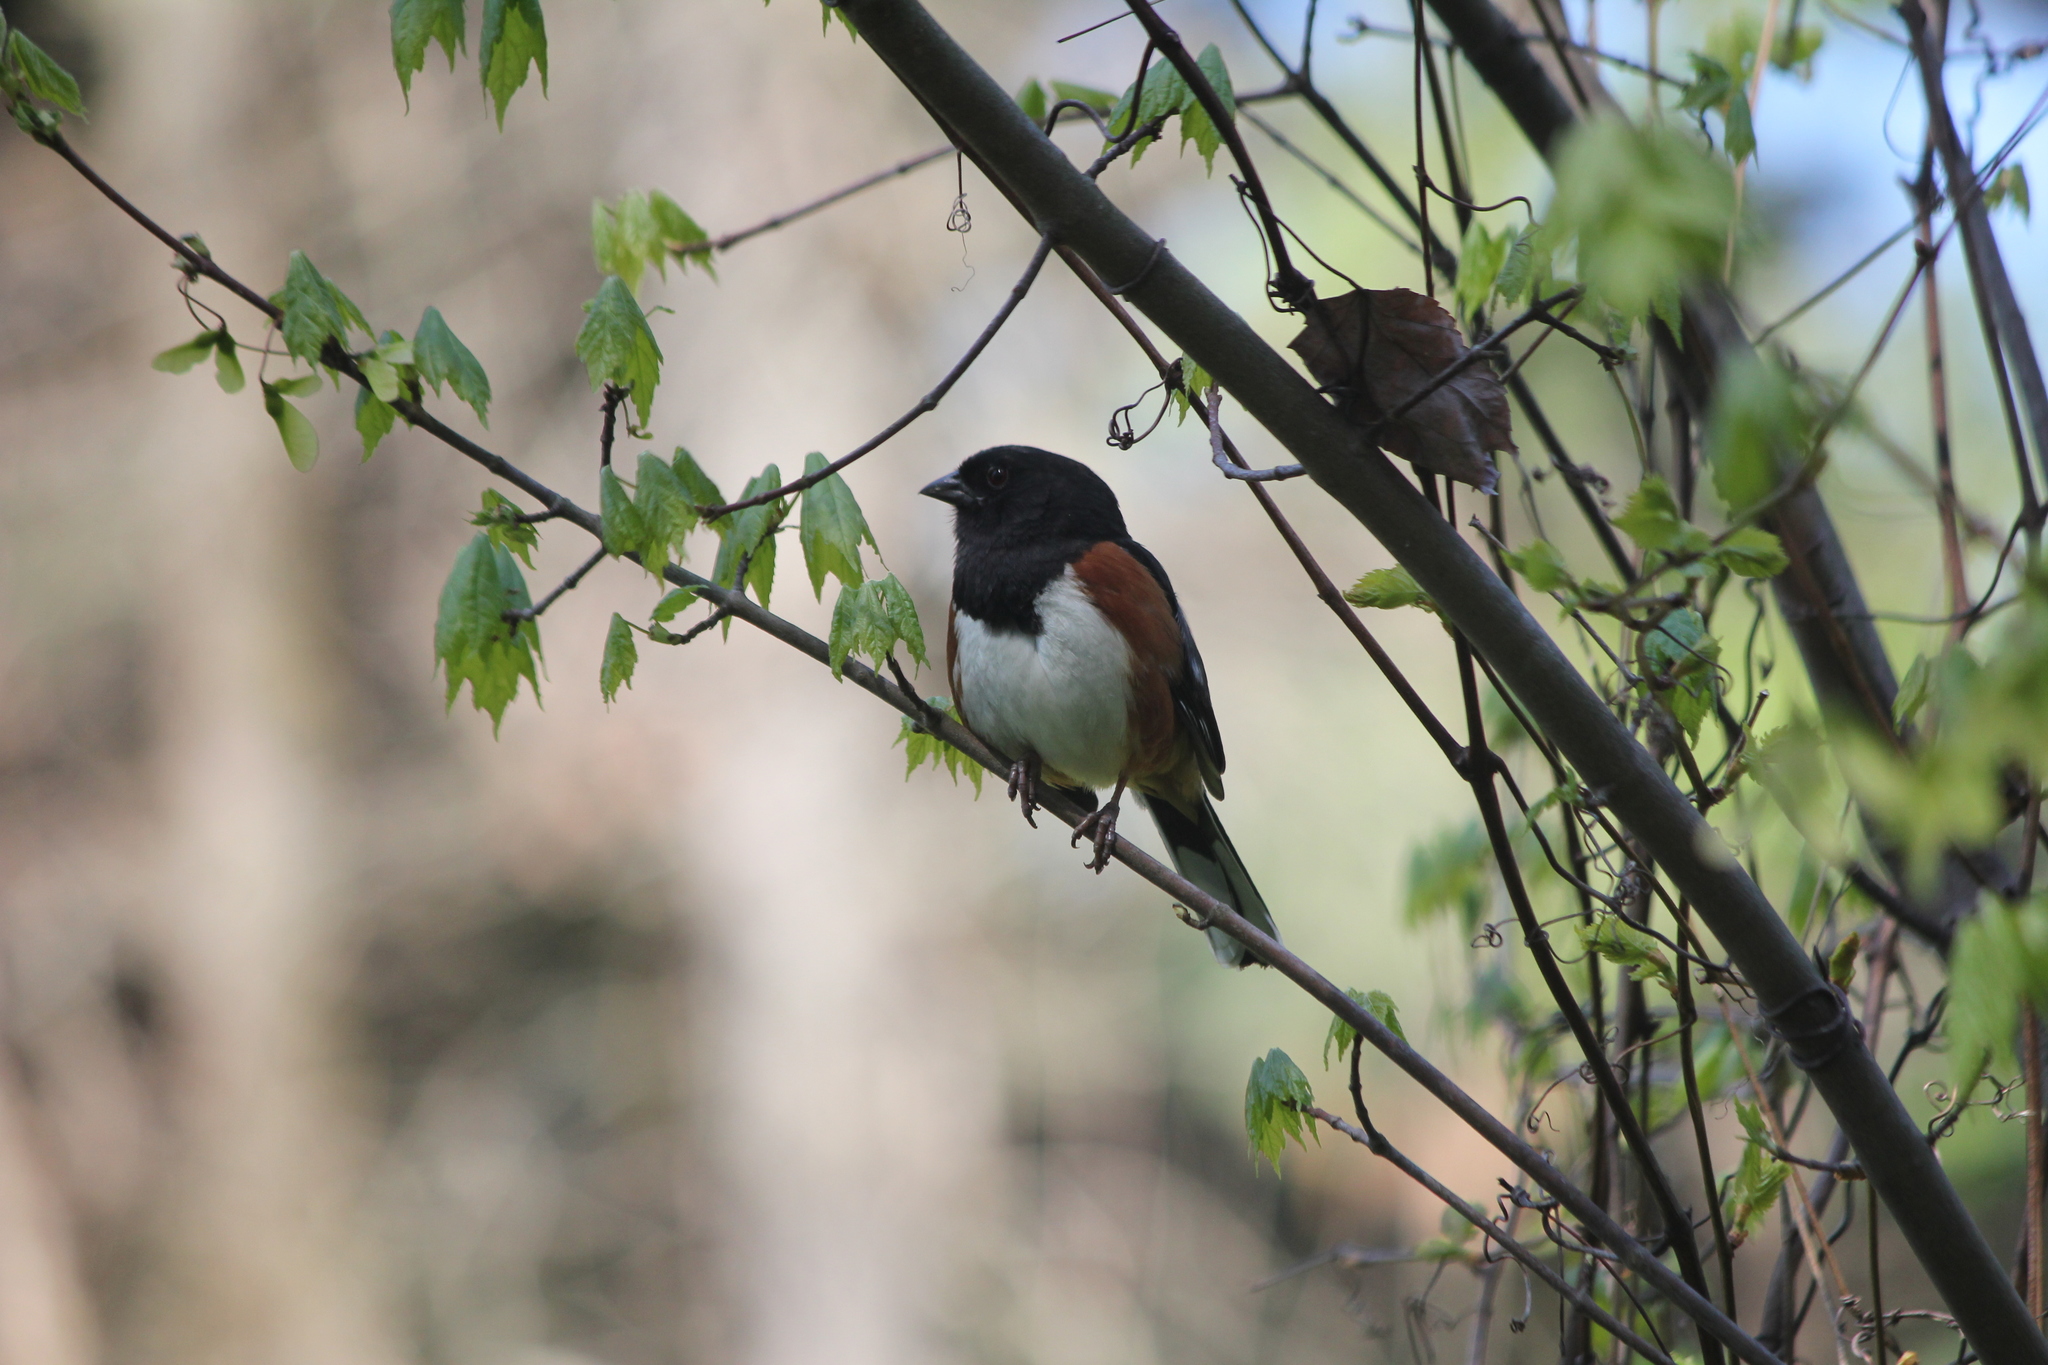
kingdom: Animalia
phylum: Chordata
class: Aves
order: Passeriformes
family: Passerellidae
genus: Pipilo
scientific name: Pipilo erythrophthalmus
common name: Eastern towhee
